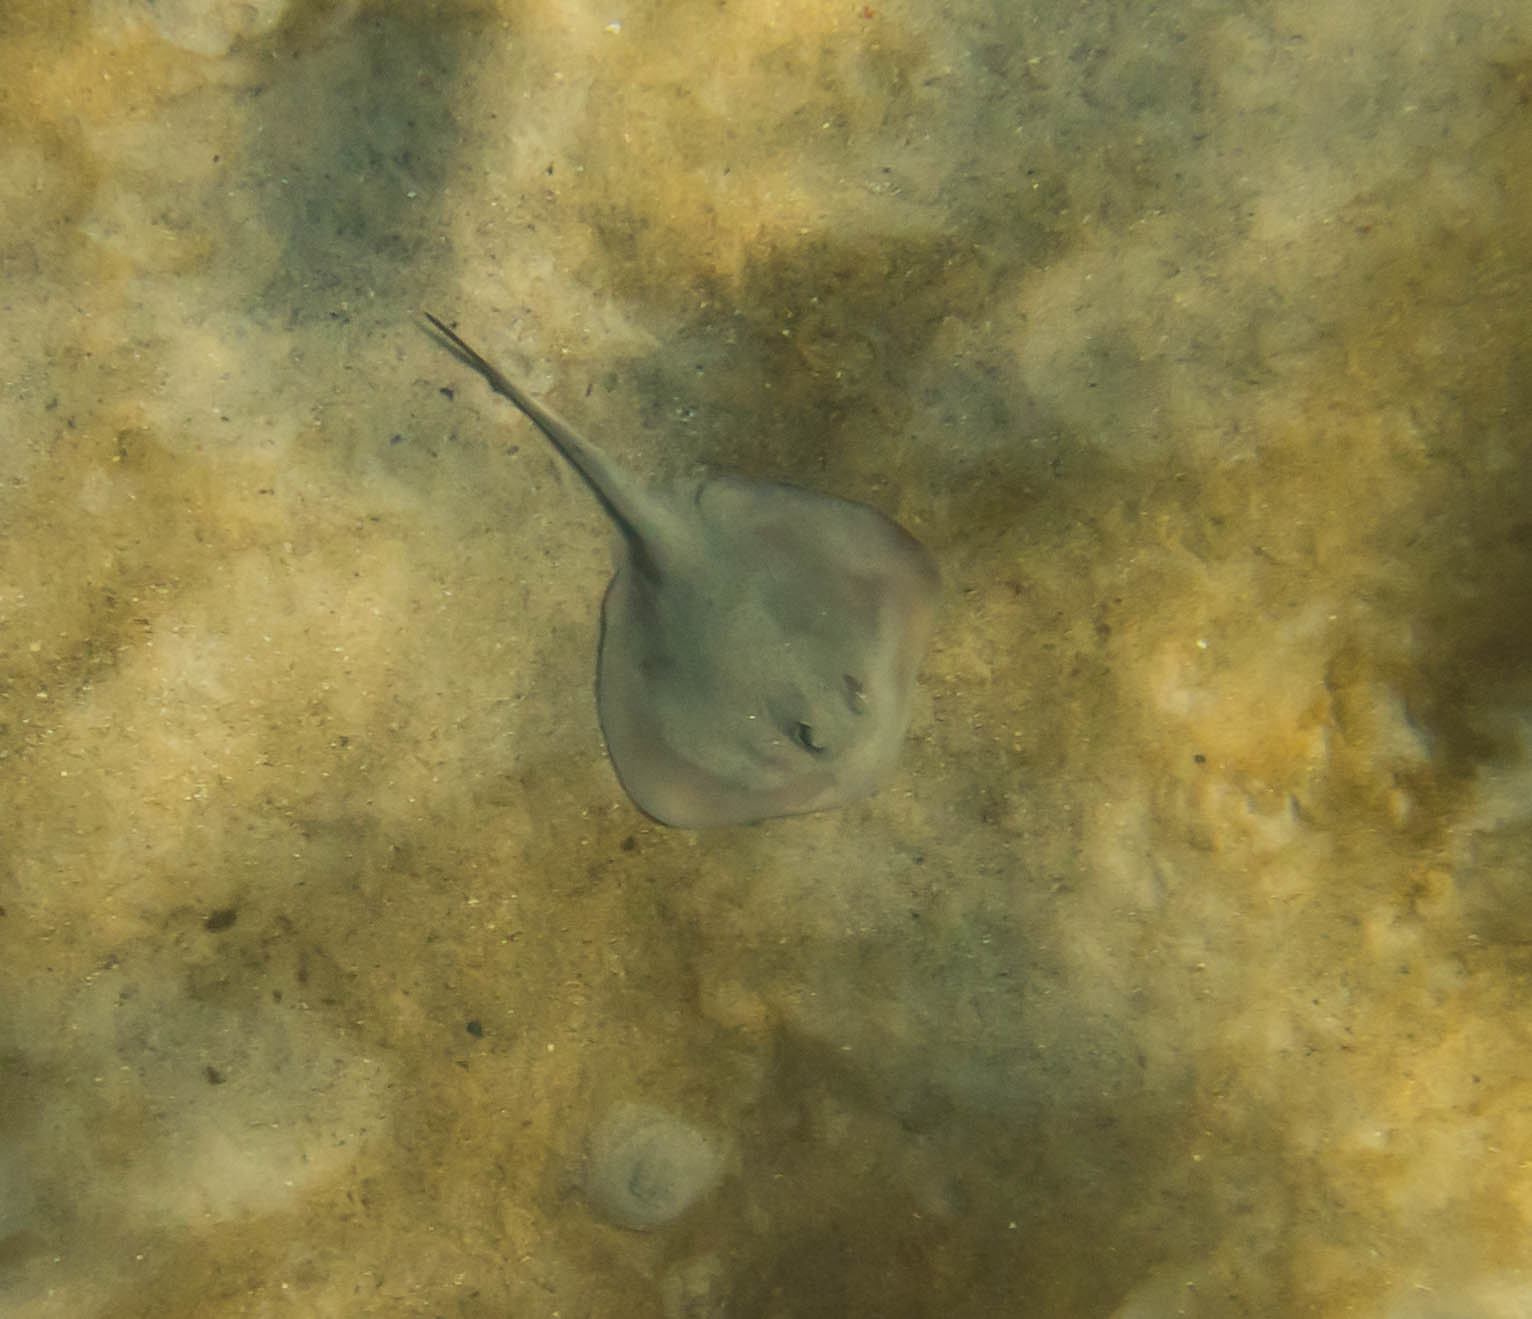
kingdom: Animalia
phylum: Chordata
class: Elasmobranchii
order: Myliobatiformes
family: Urolophidae
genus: Trygonoptera
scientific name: Trygonoptera testacea
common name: Common stingaree
